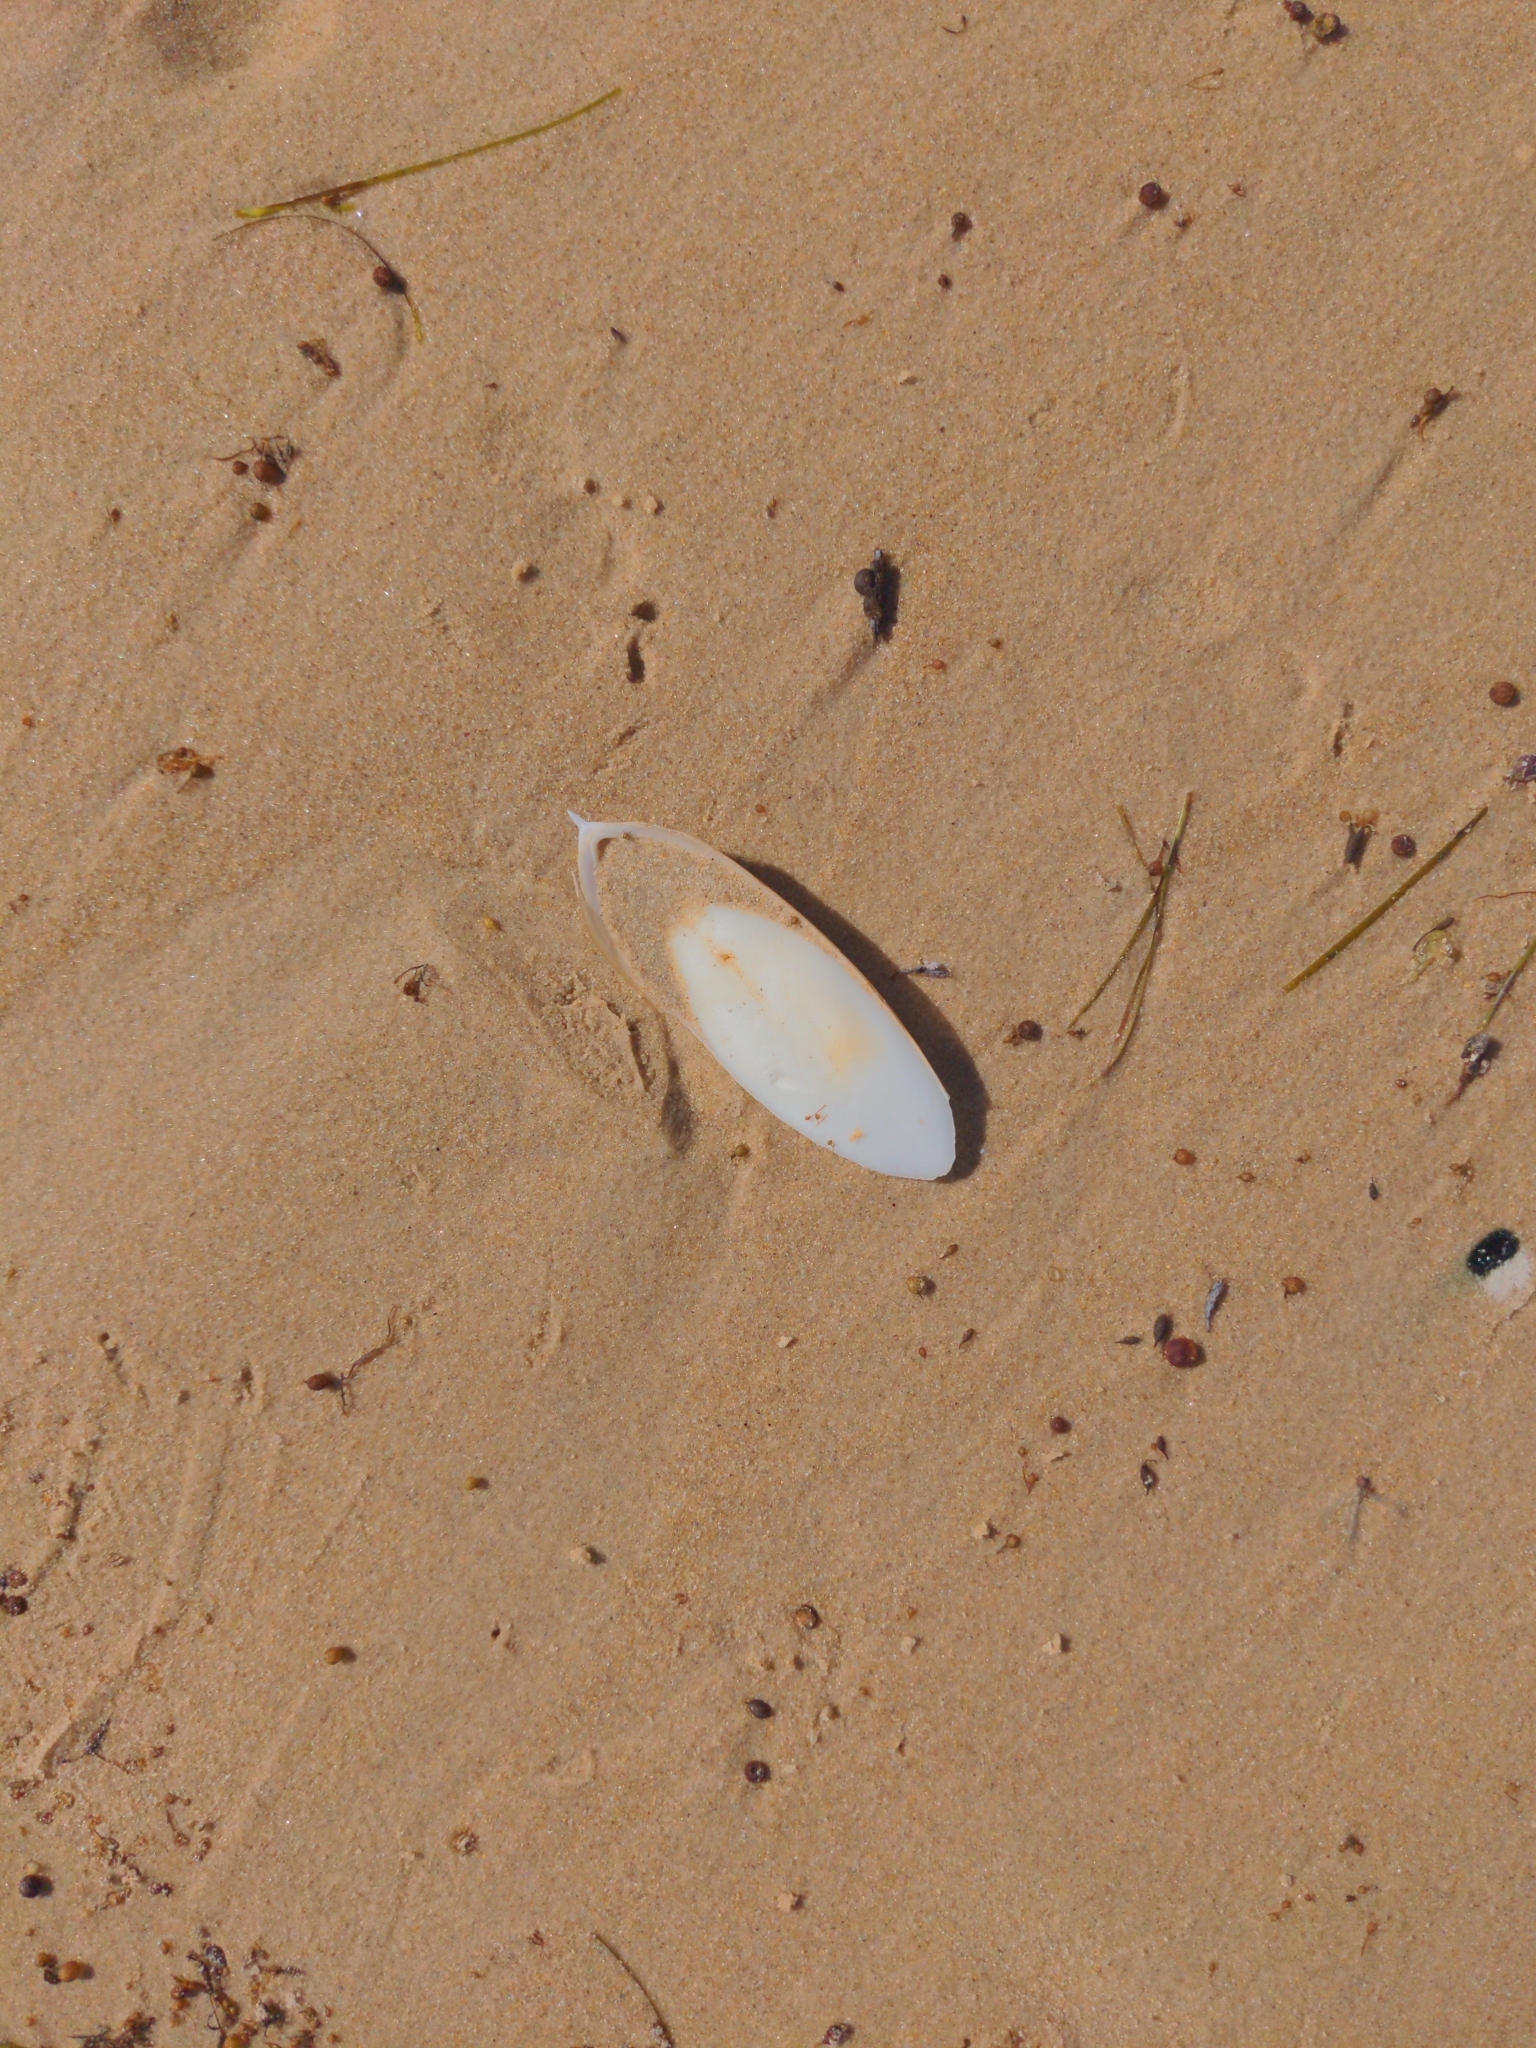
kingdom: Animalia
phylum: Mollusca
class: Cephalopoda
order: Sepiida
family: Sepiidae
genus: Ascarosepion
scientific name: Ascarosepion apama
